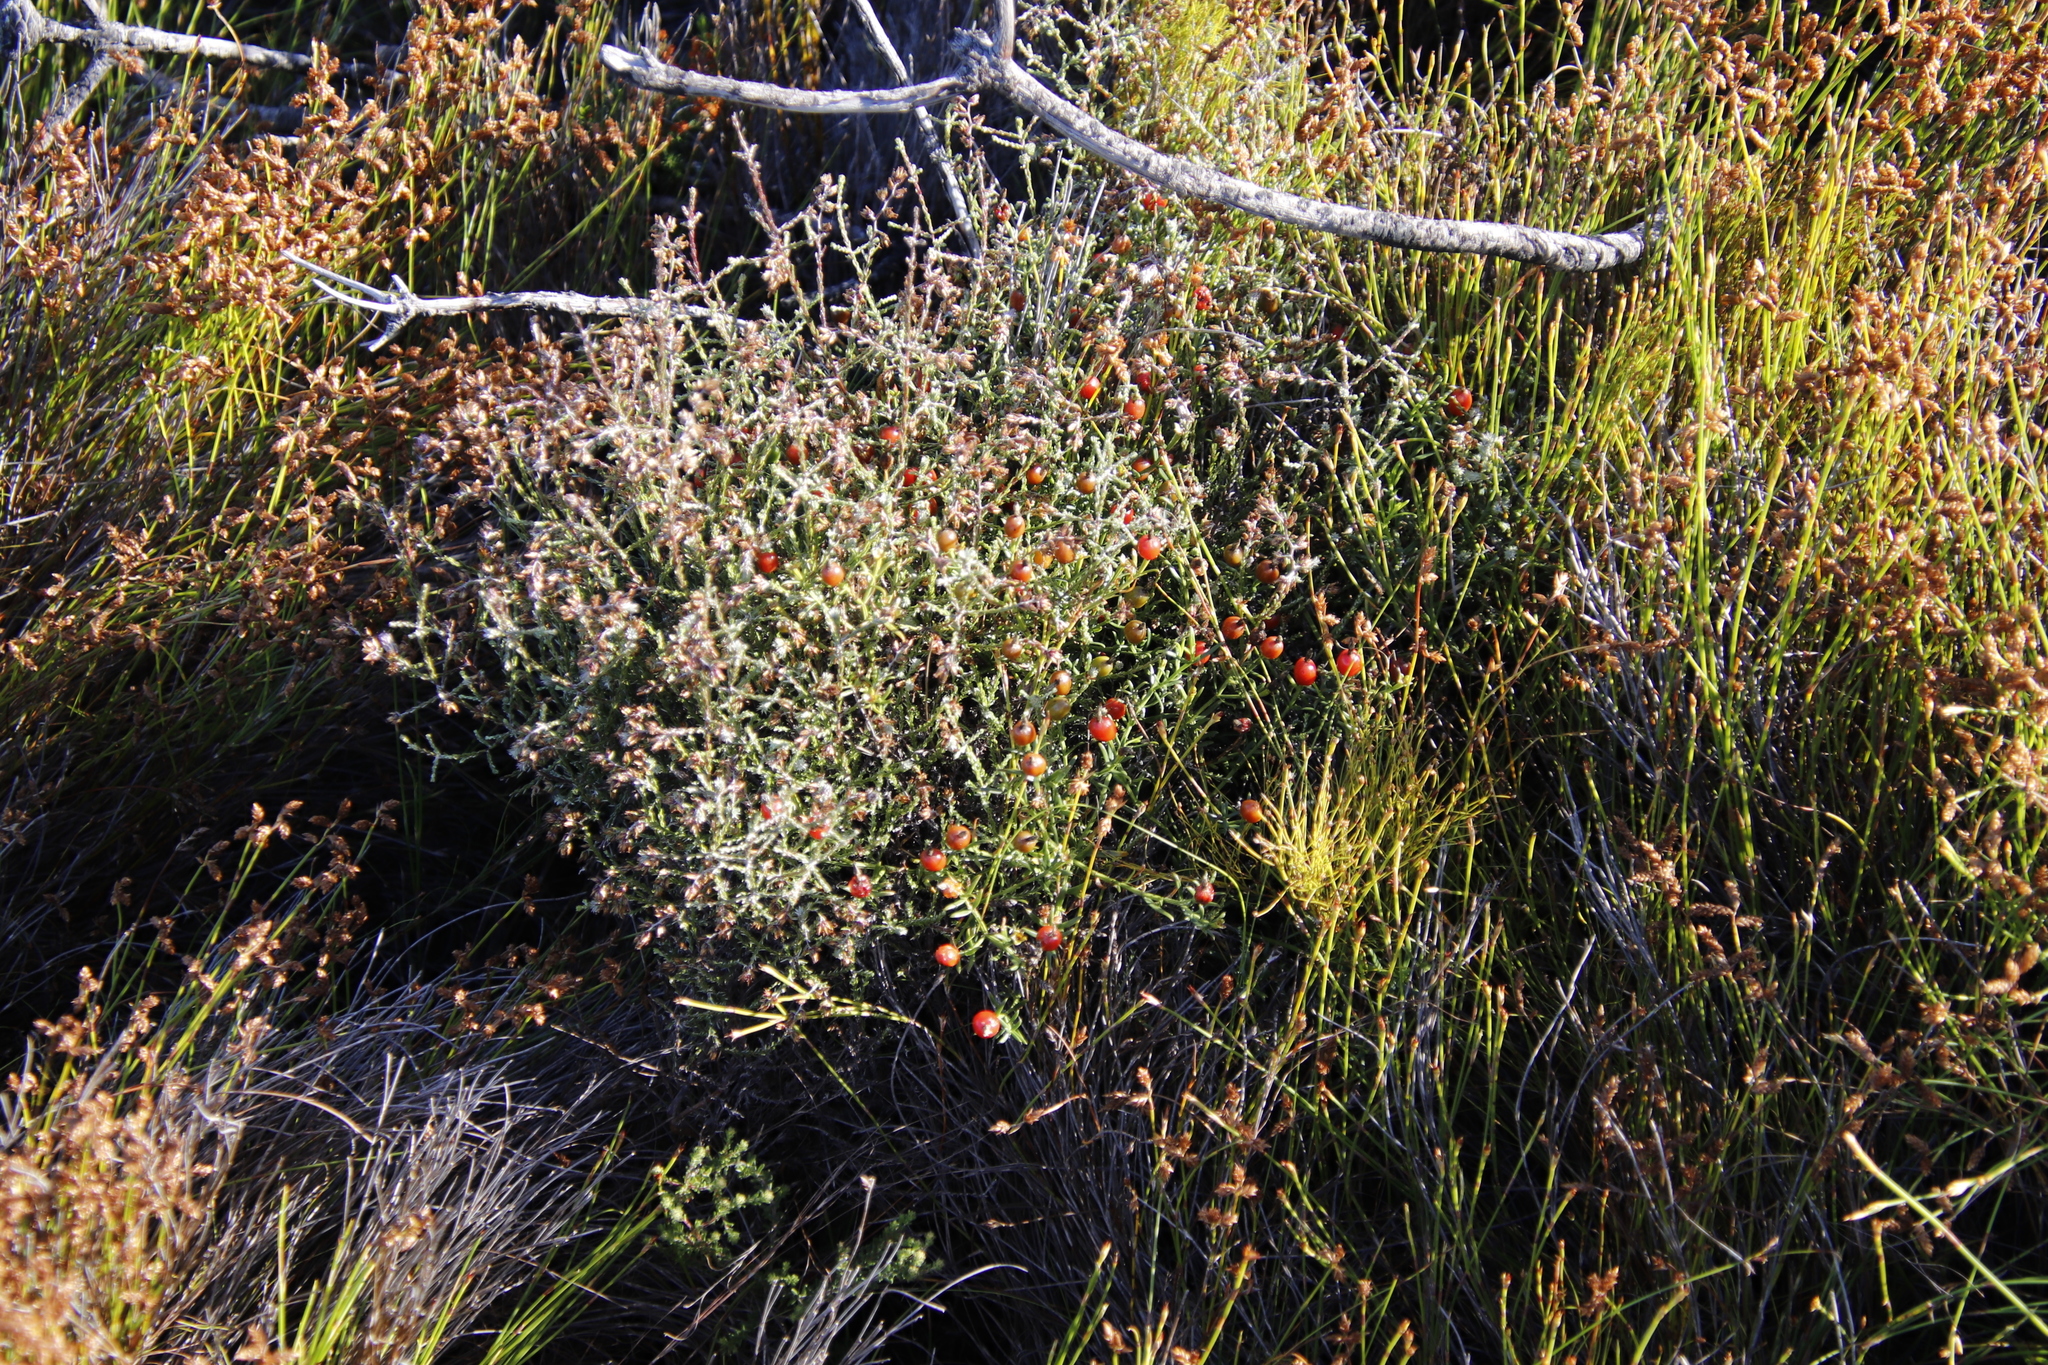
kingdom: Plantae
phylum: Tracheophyta
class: Magnoliopsida
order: Asterales
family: Asteraceae
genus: Myrovernix
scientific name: Myrovernix scaber
